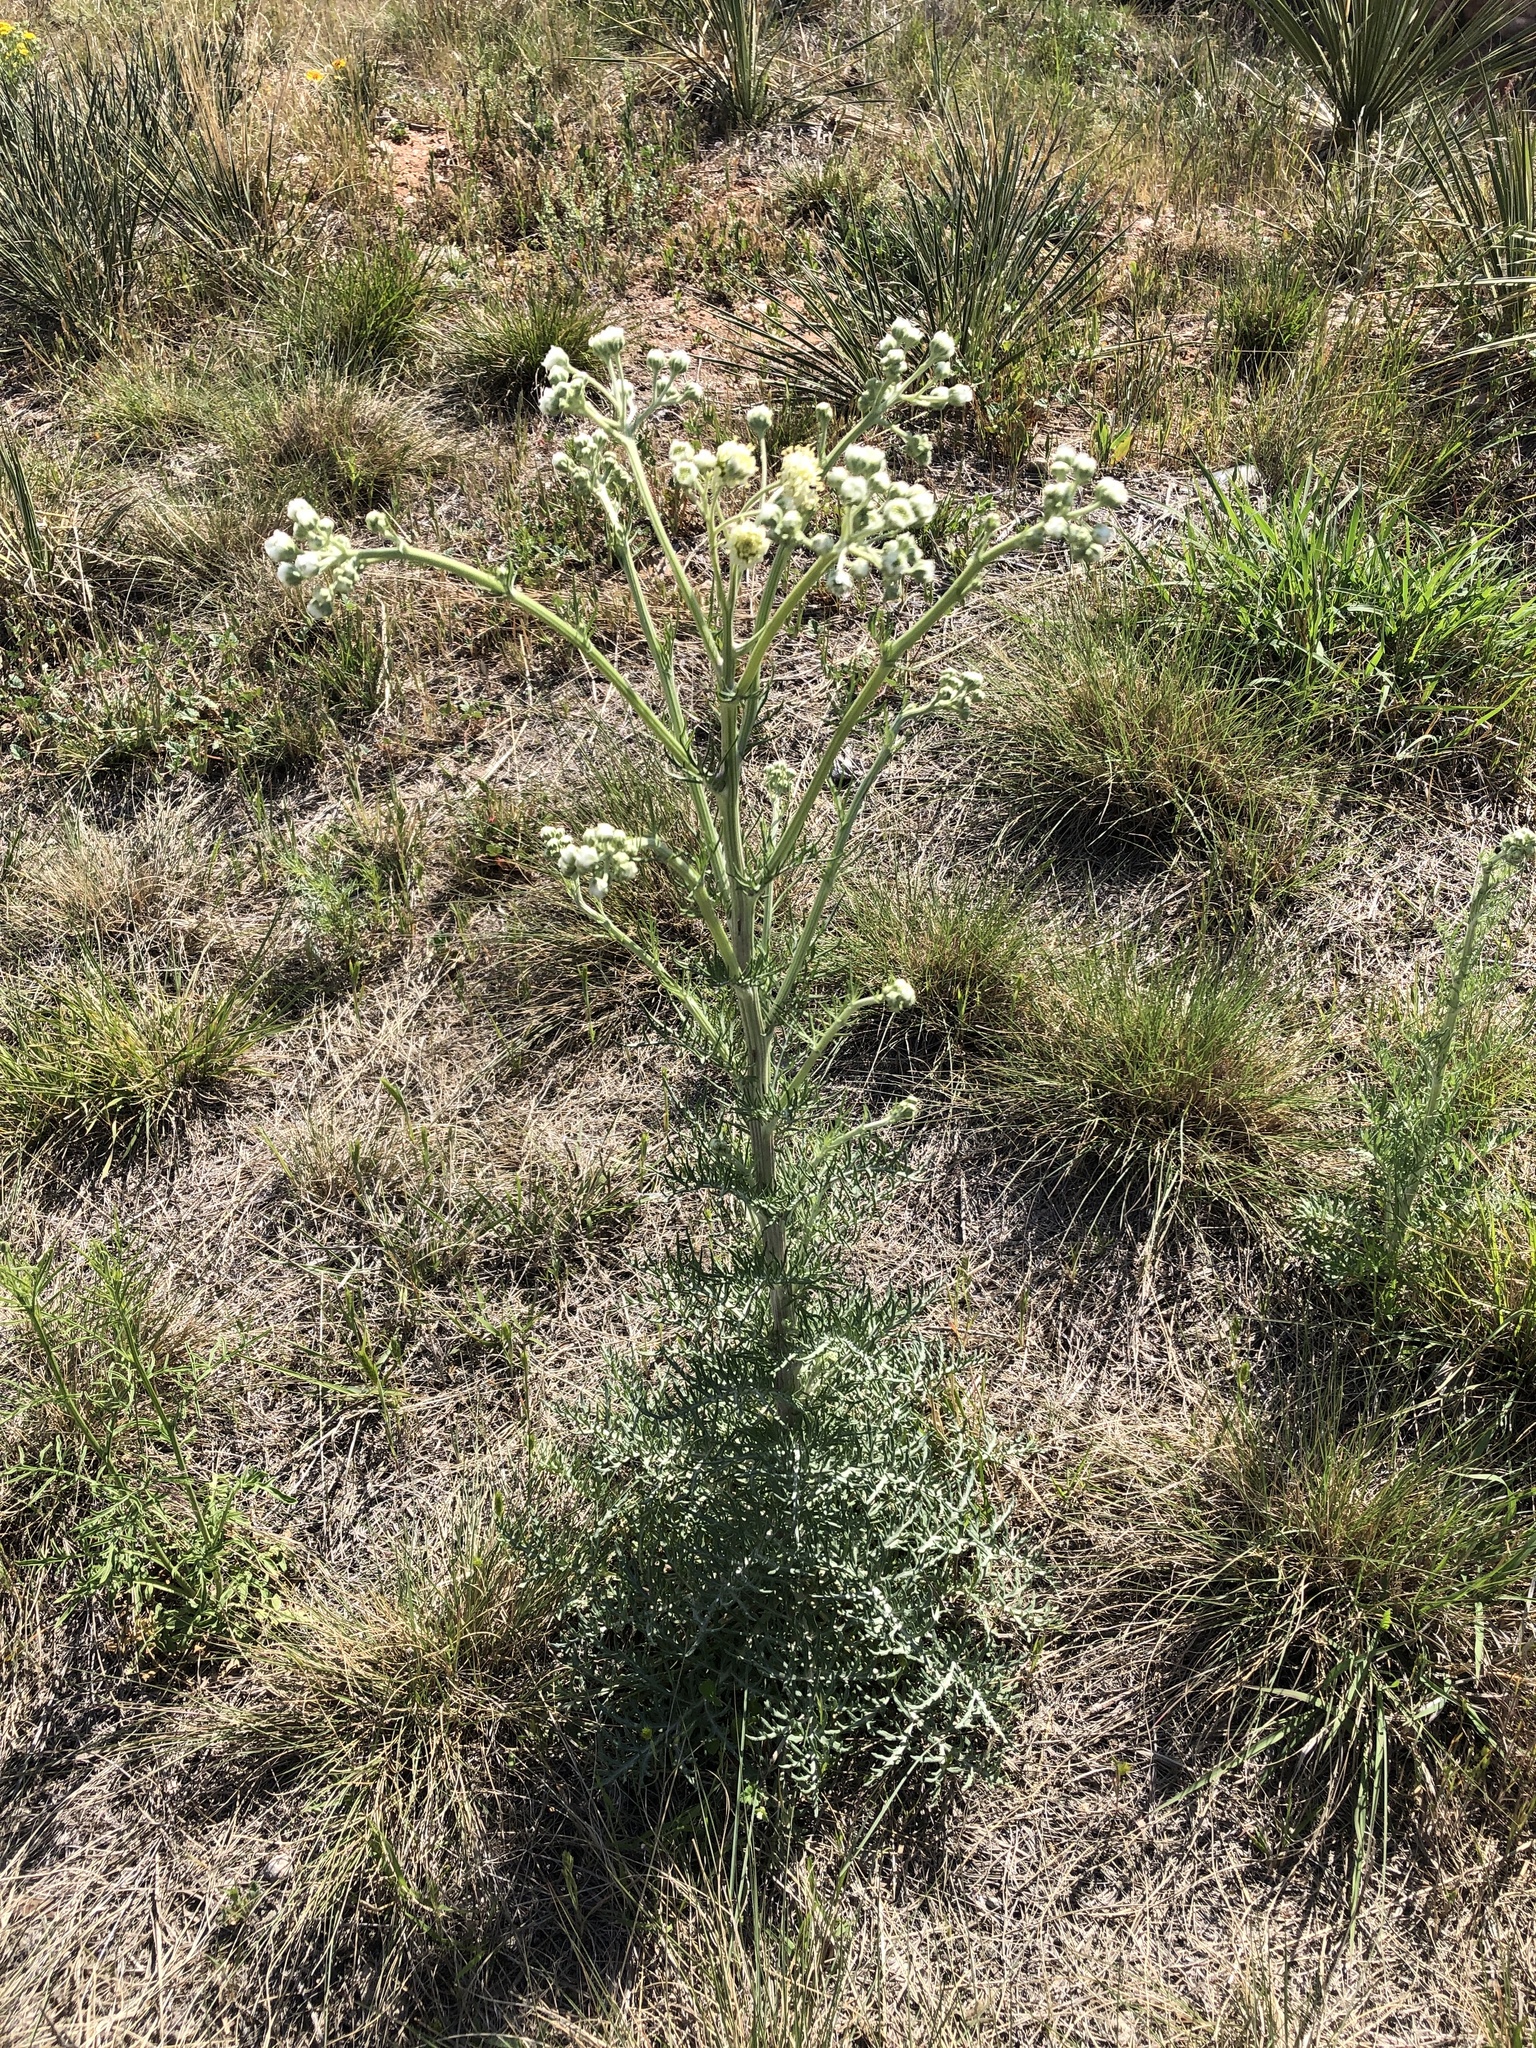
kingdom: Plantae
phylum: Tracheophyta
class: Magnoliopsida
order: Asterales
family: Asteraceae
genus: Hymenopappus
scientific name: Hymenopappus scabiosaeus
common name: Carolina woollywhite
